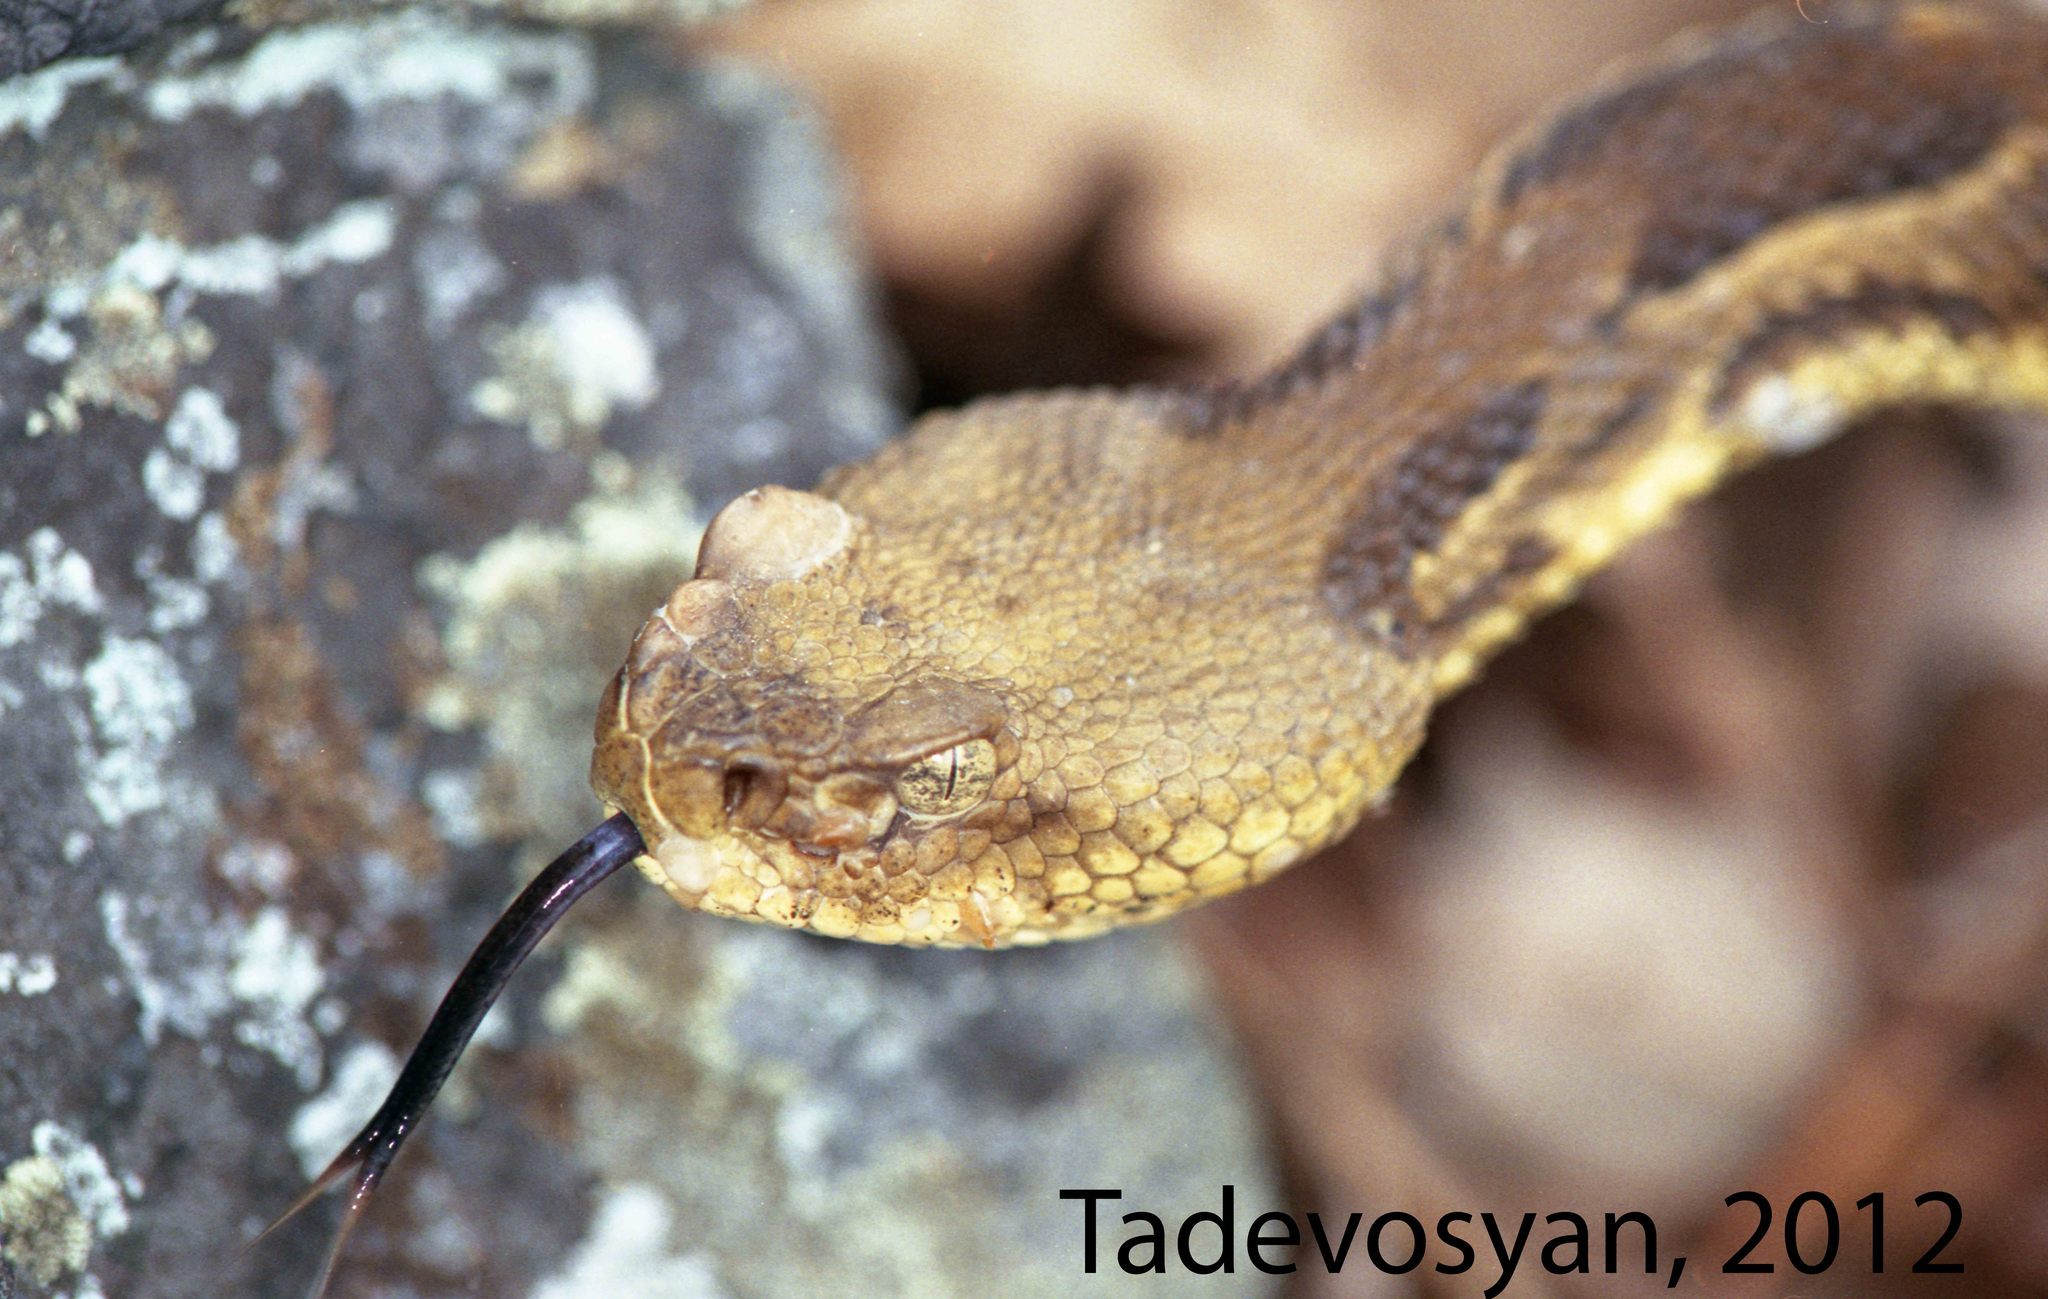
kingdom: Animalia
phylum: Chordata
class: Squamata
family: Viperidae
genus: Crotalus
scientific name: Crotalus horridus
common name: Timber rattlesnake
